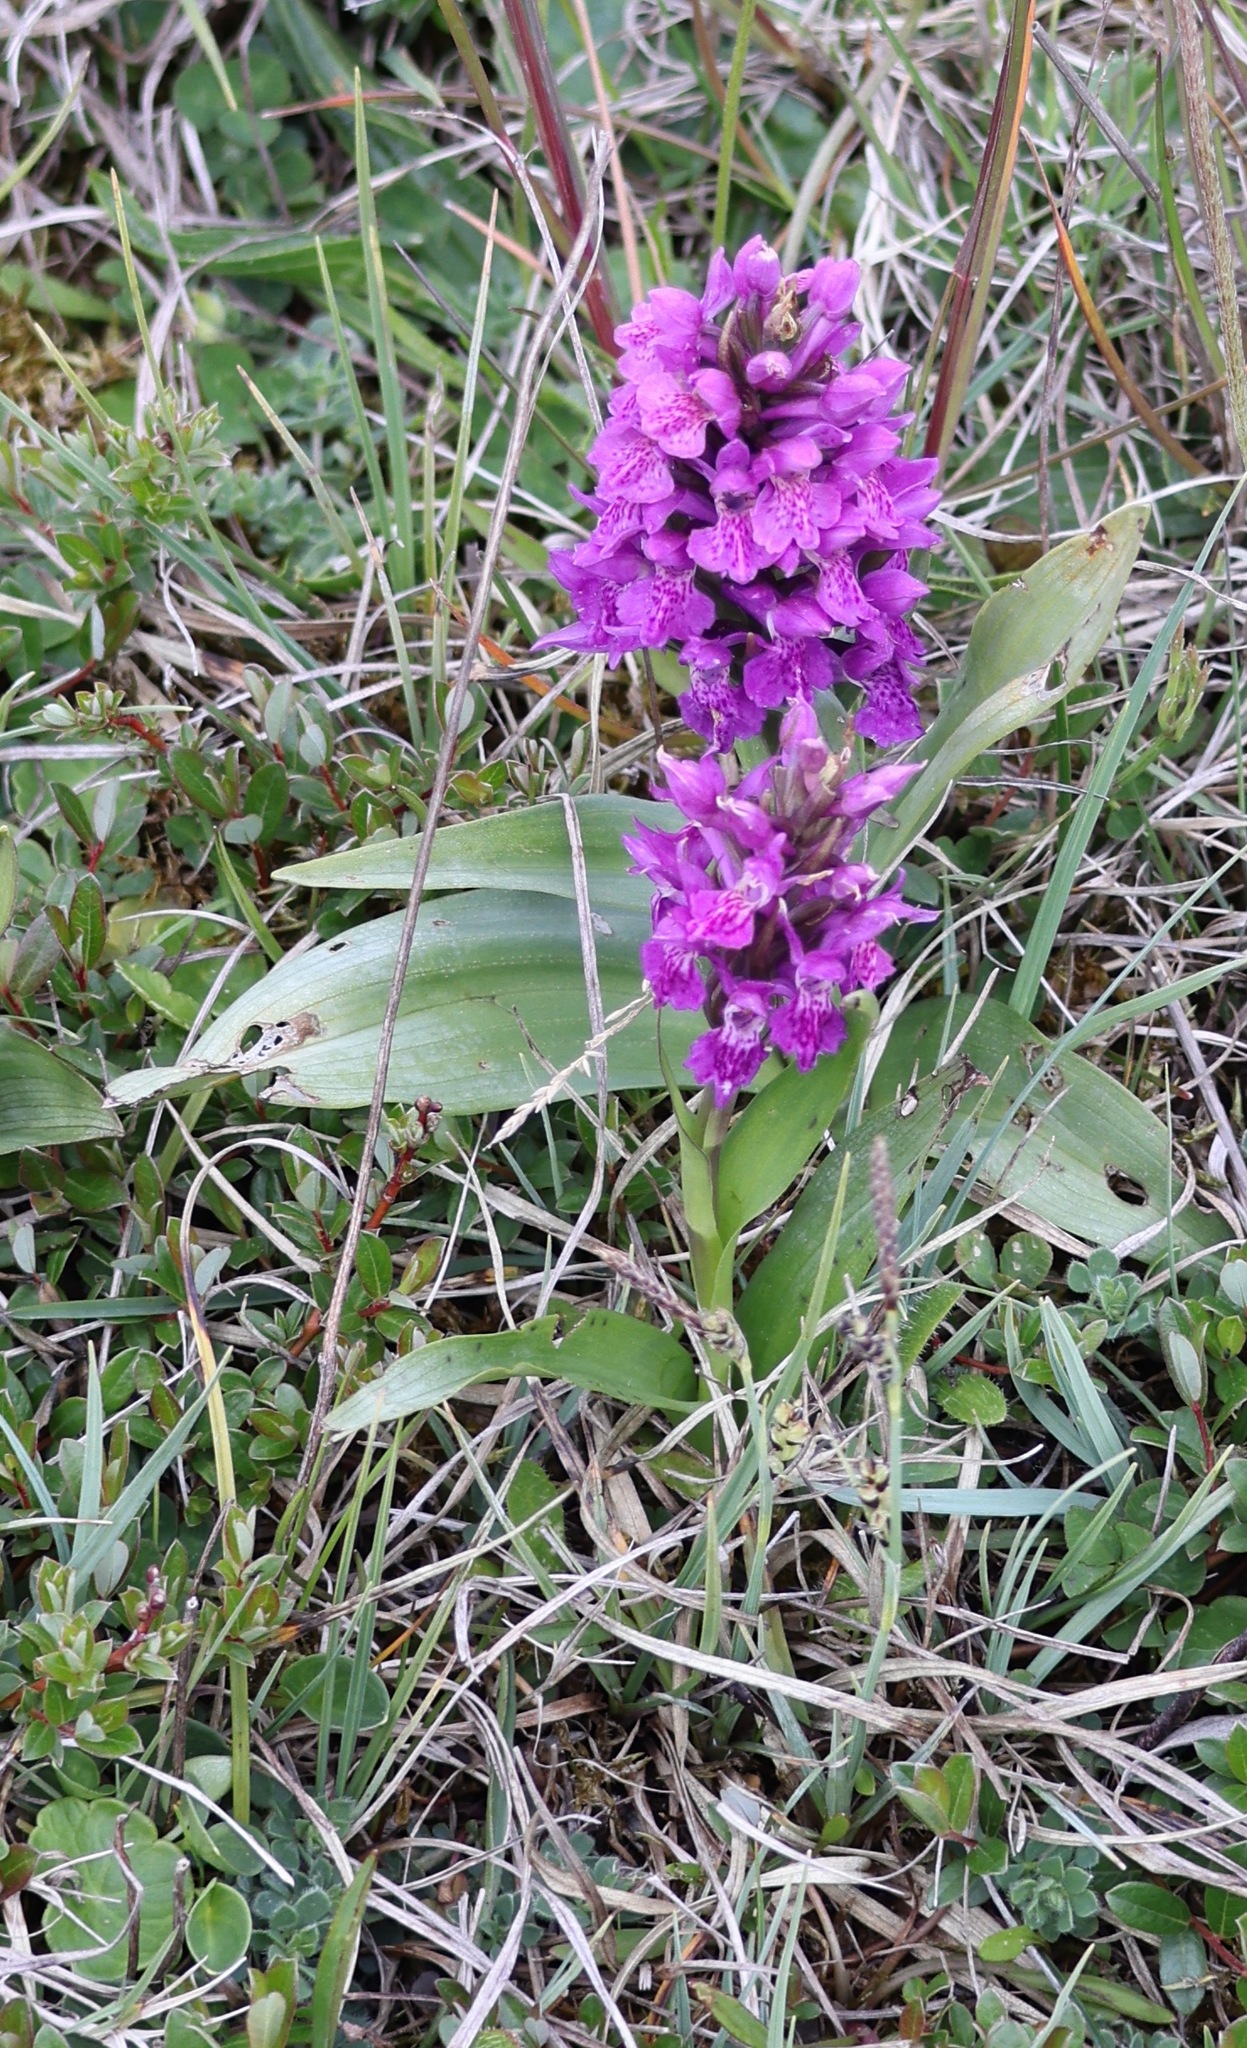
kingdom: Plantae
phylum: Tracheophyta
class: Liliopsida
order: Asparagales
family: Orchidaceae
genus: Dactylorhiza
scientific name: Dactylorhiza majalis
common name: Marsh orchid
